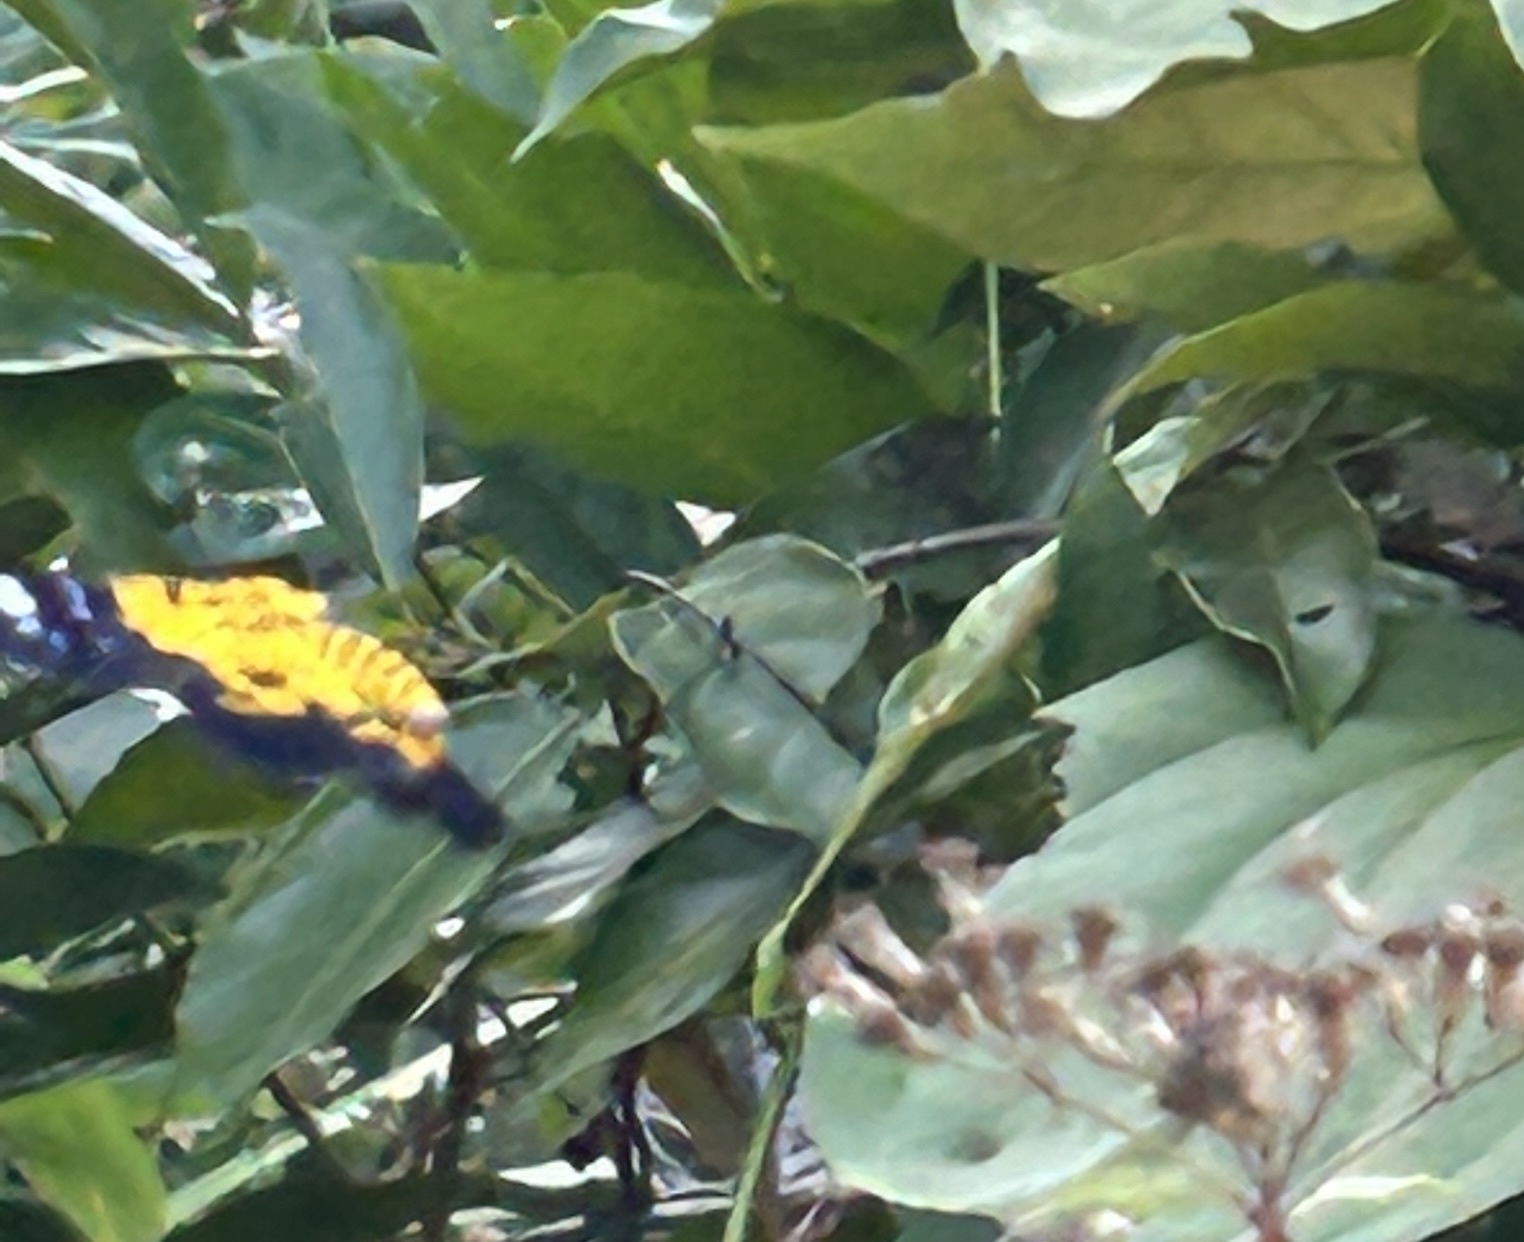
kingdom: Animalia
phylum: Arthropoda
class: Insecta
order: Lepidoptera
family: Geometridae
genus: Dysphania
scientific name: Dysphania militaris
